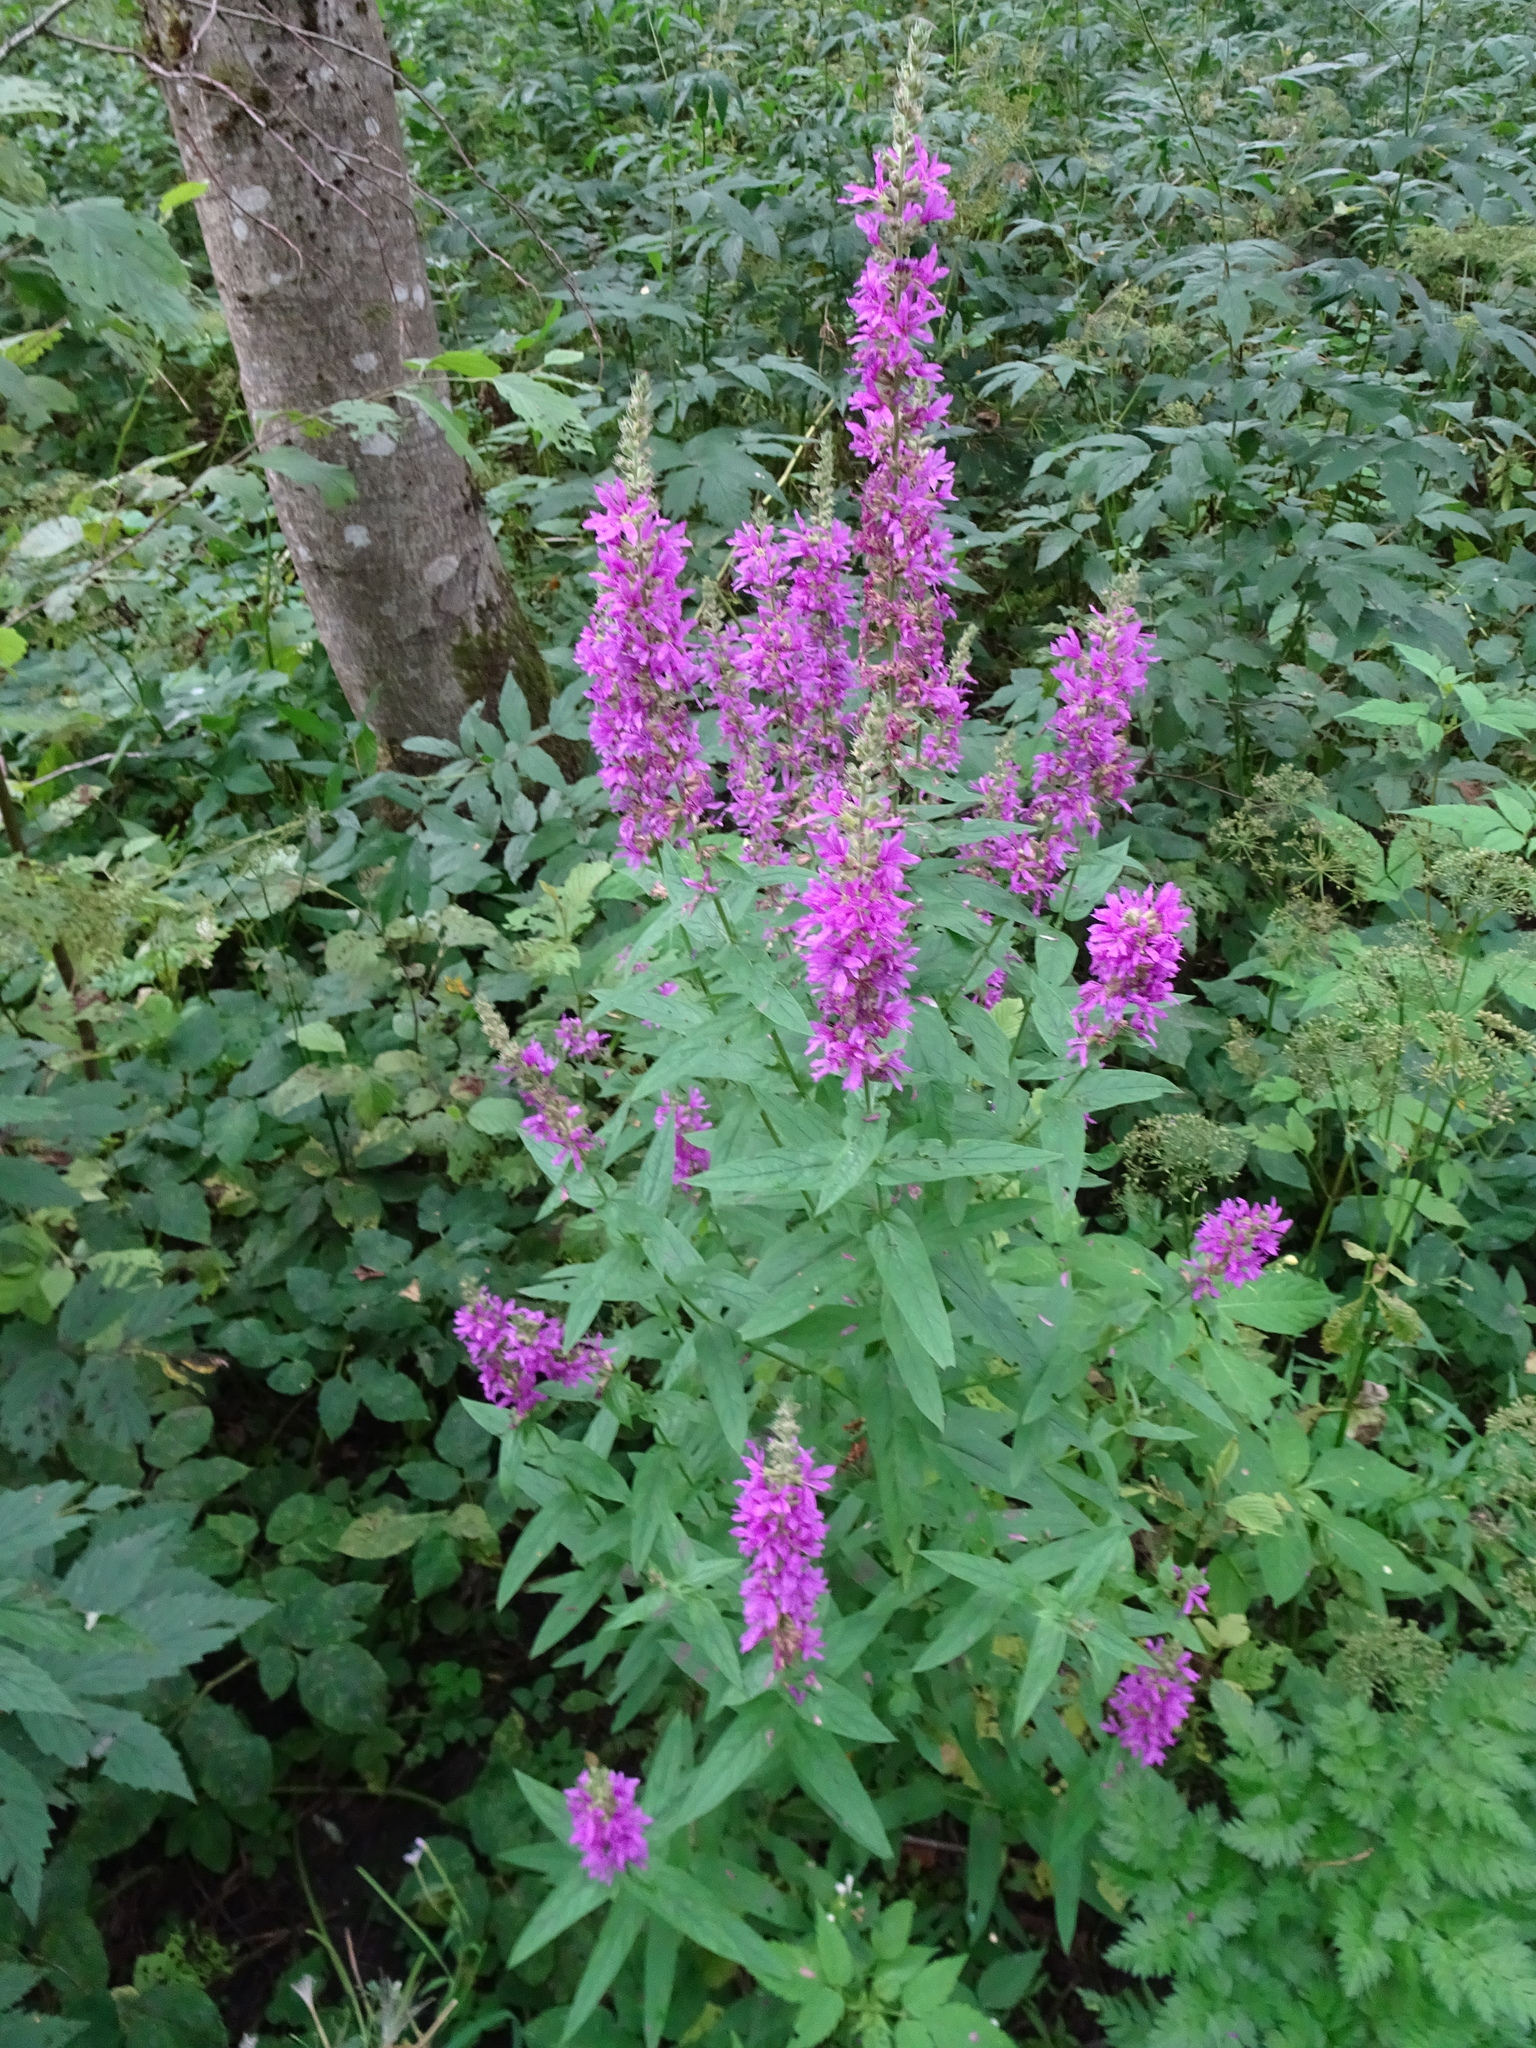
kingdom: Plantae
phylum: Tracheophyta
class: Magnoliopsida
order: Myrtales
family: Lythraceae
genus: Lythrum
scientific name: Lythrum salicaria
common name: Purple loosestrife
